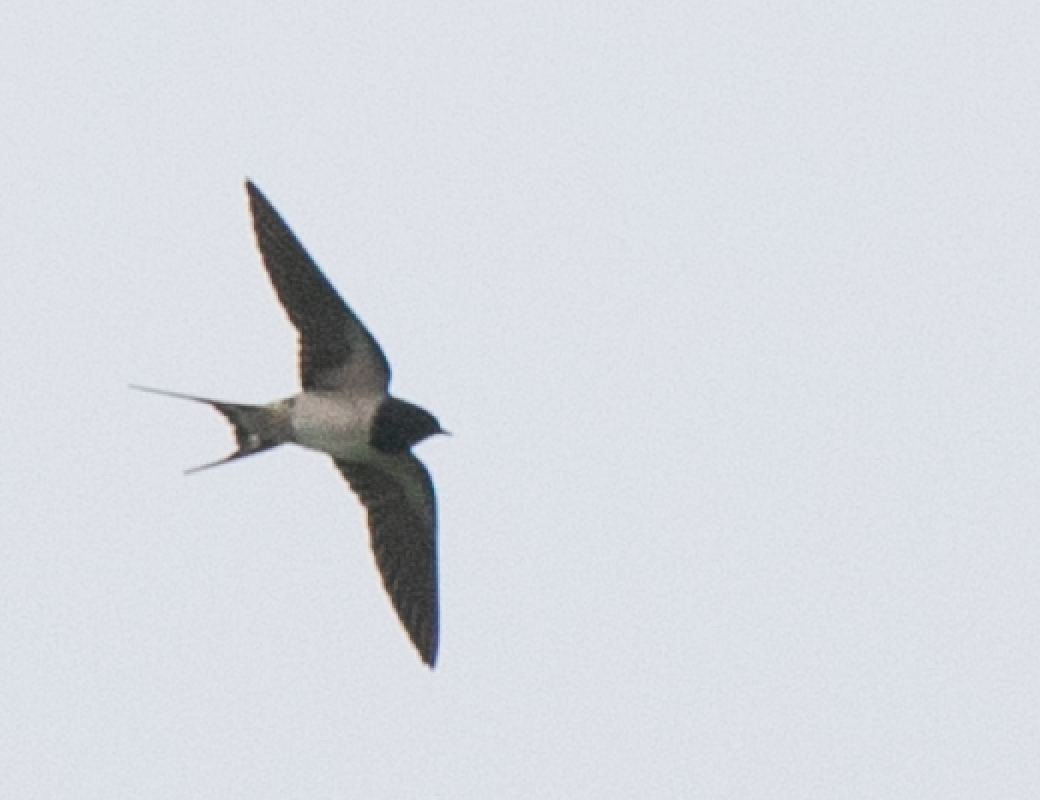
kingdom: Animalia
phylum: Chordata
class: Aves
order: Passeriformes
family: Hirundinidae
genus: Hirundo
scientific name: Hirundo rustica
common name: Barn swallow
